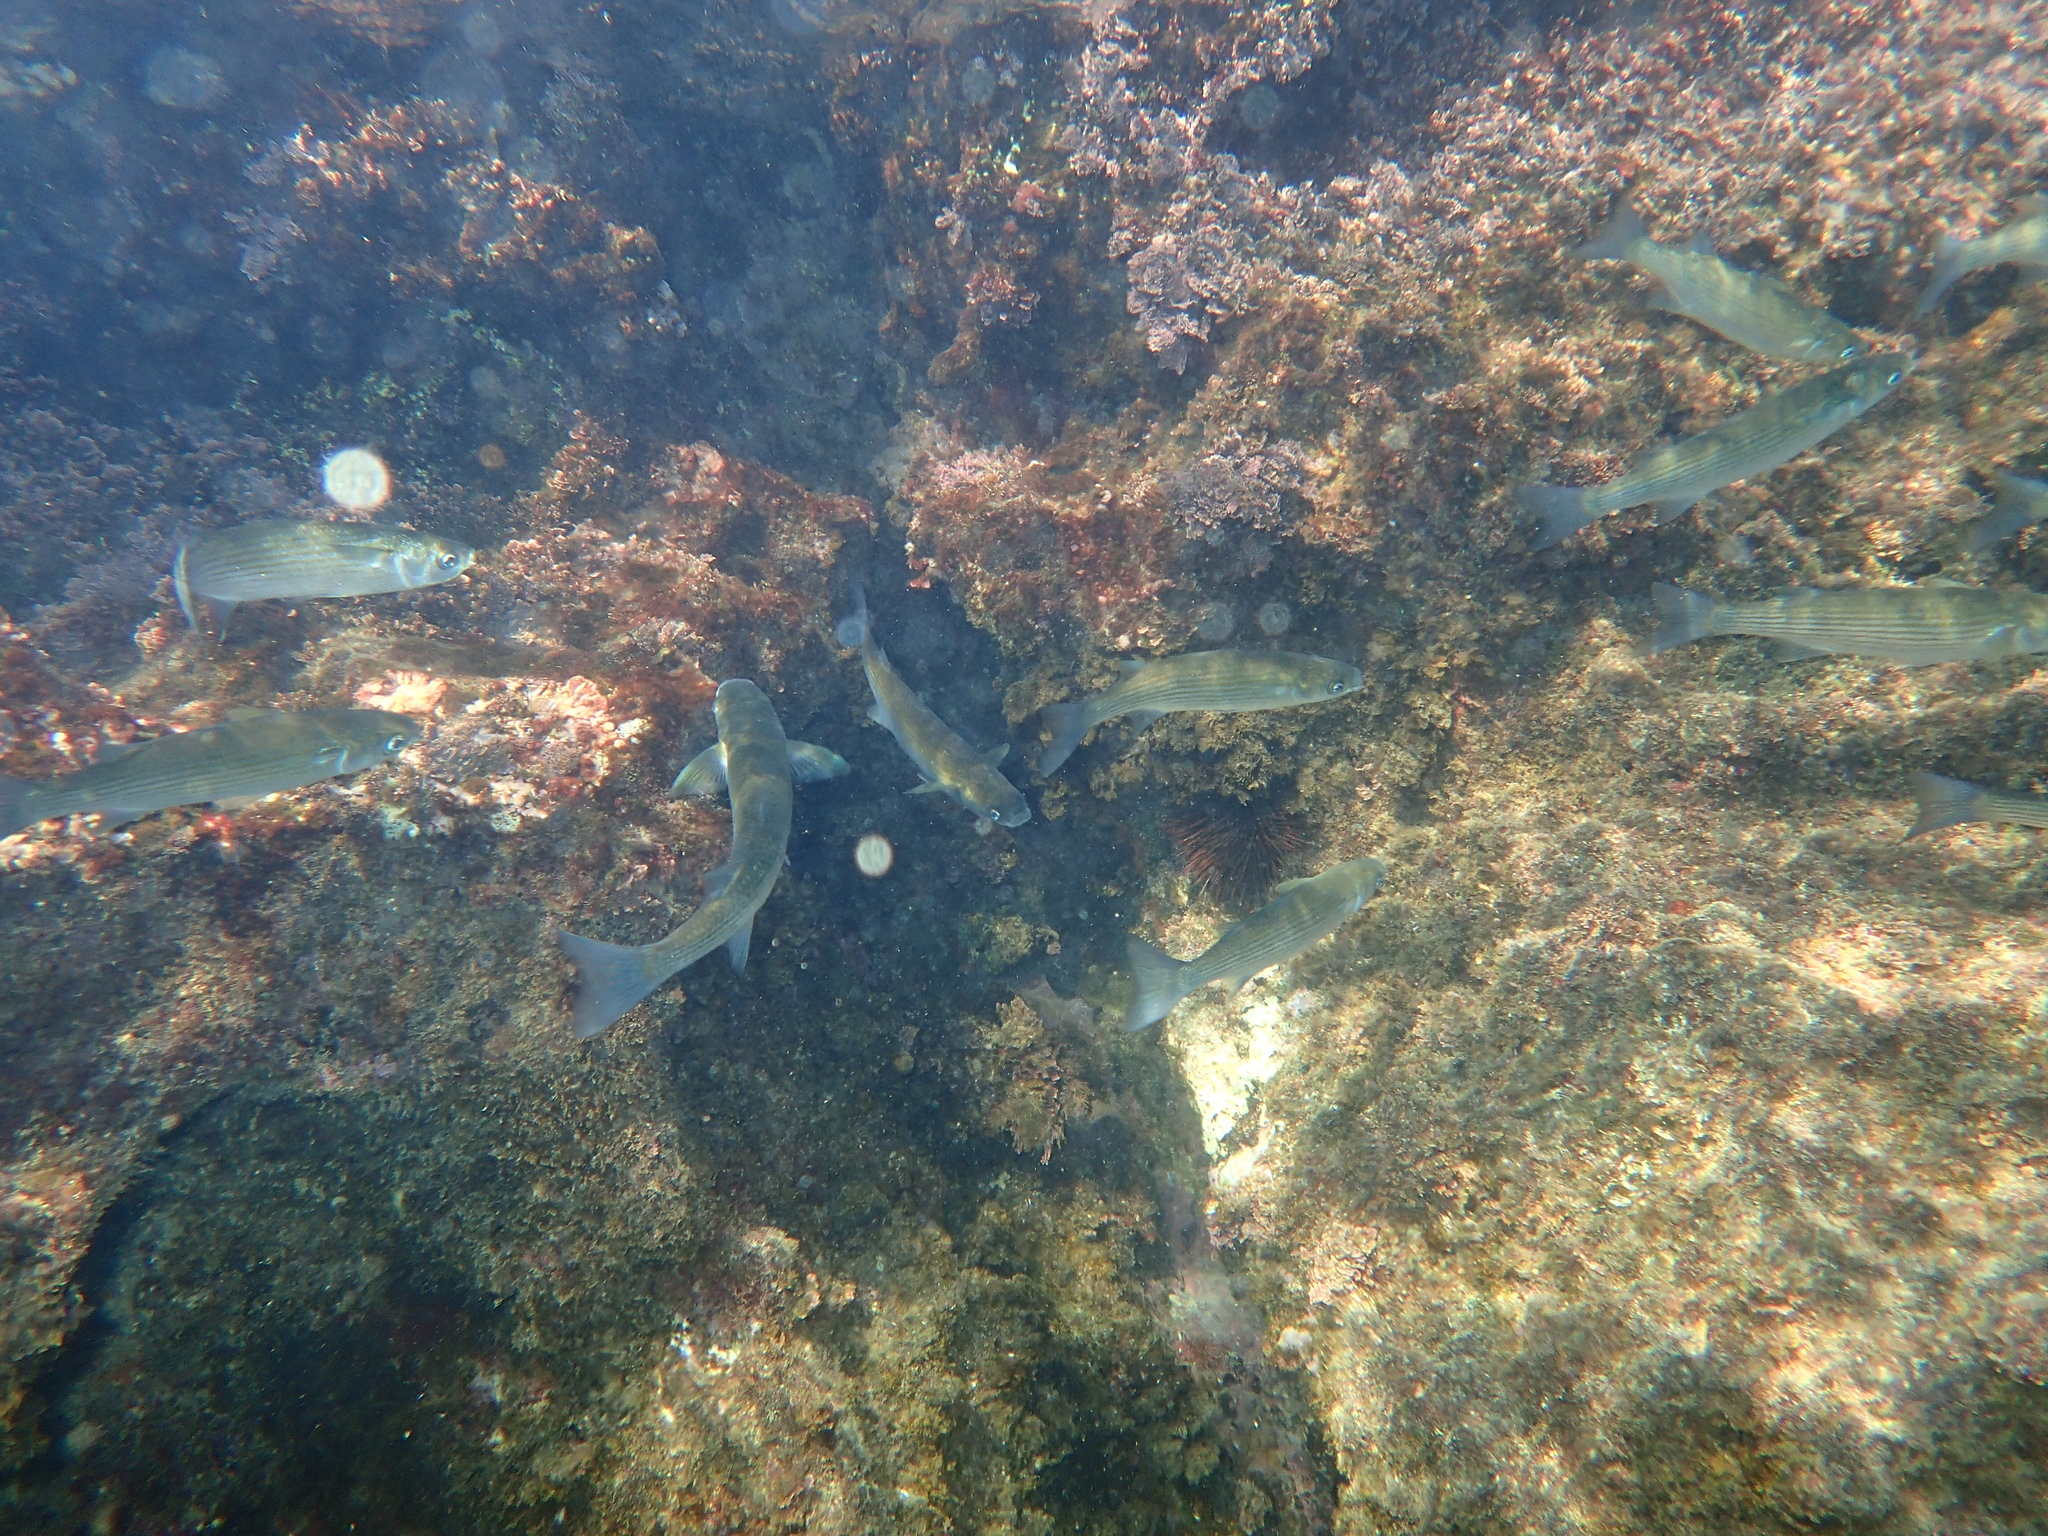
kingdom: Animalia
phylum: Chordata
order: Mugiliformes
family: Mugilidae
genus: Chelon
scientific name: Chelon labrosus
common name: Thick-lipped mullet
